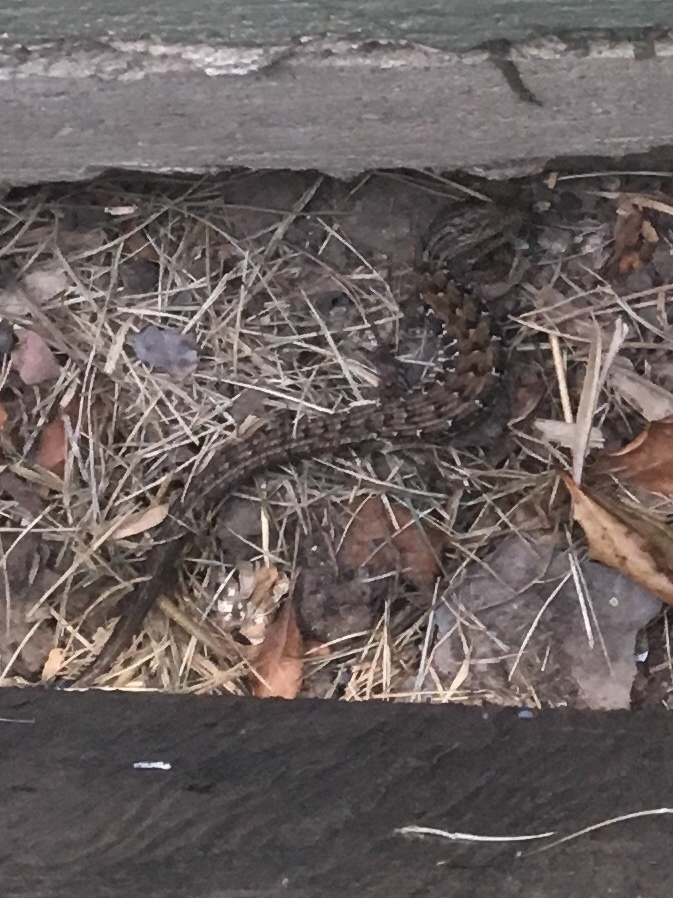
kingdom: Animalia
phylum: Chordata
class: Squamata
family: Anguidae
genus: Elgaria
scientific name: Elgaria multicarinata
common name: Southern alligator lizard
